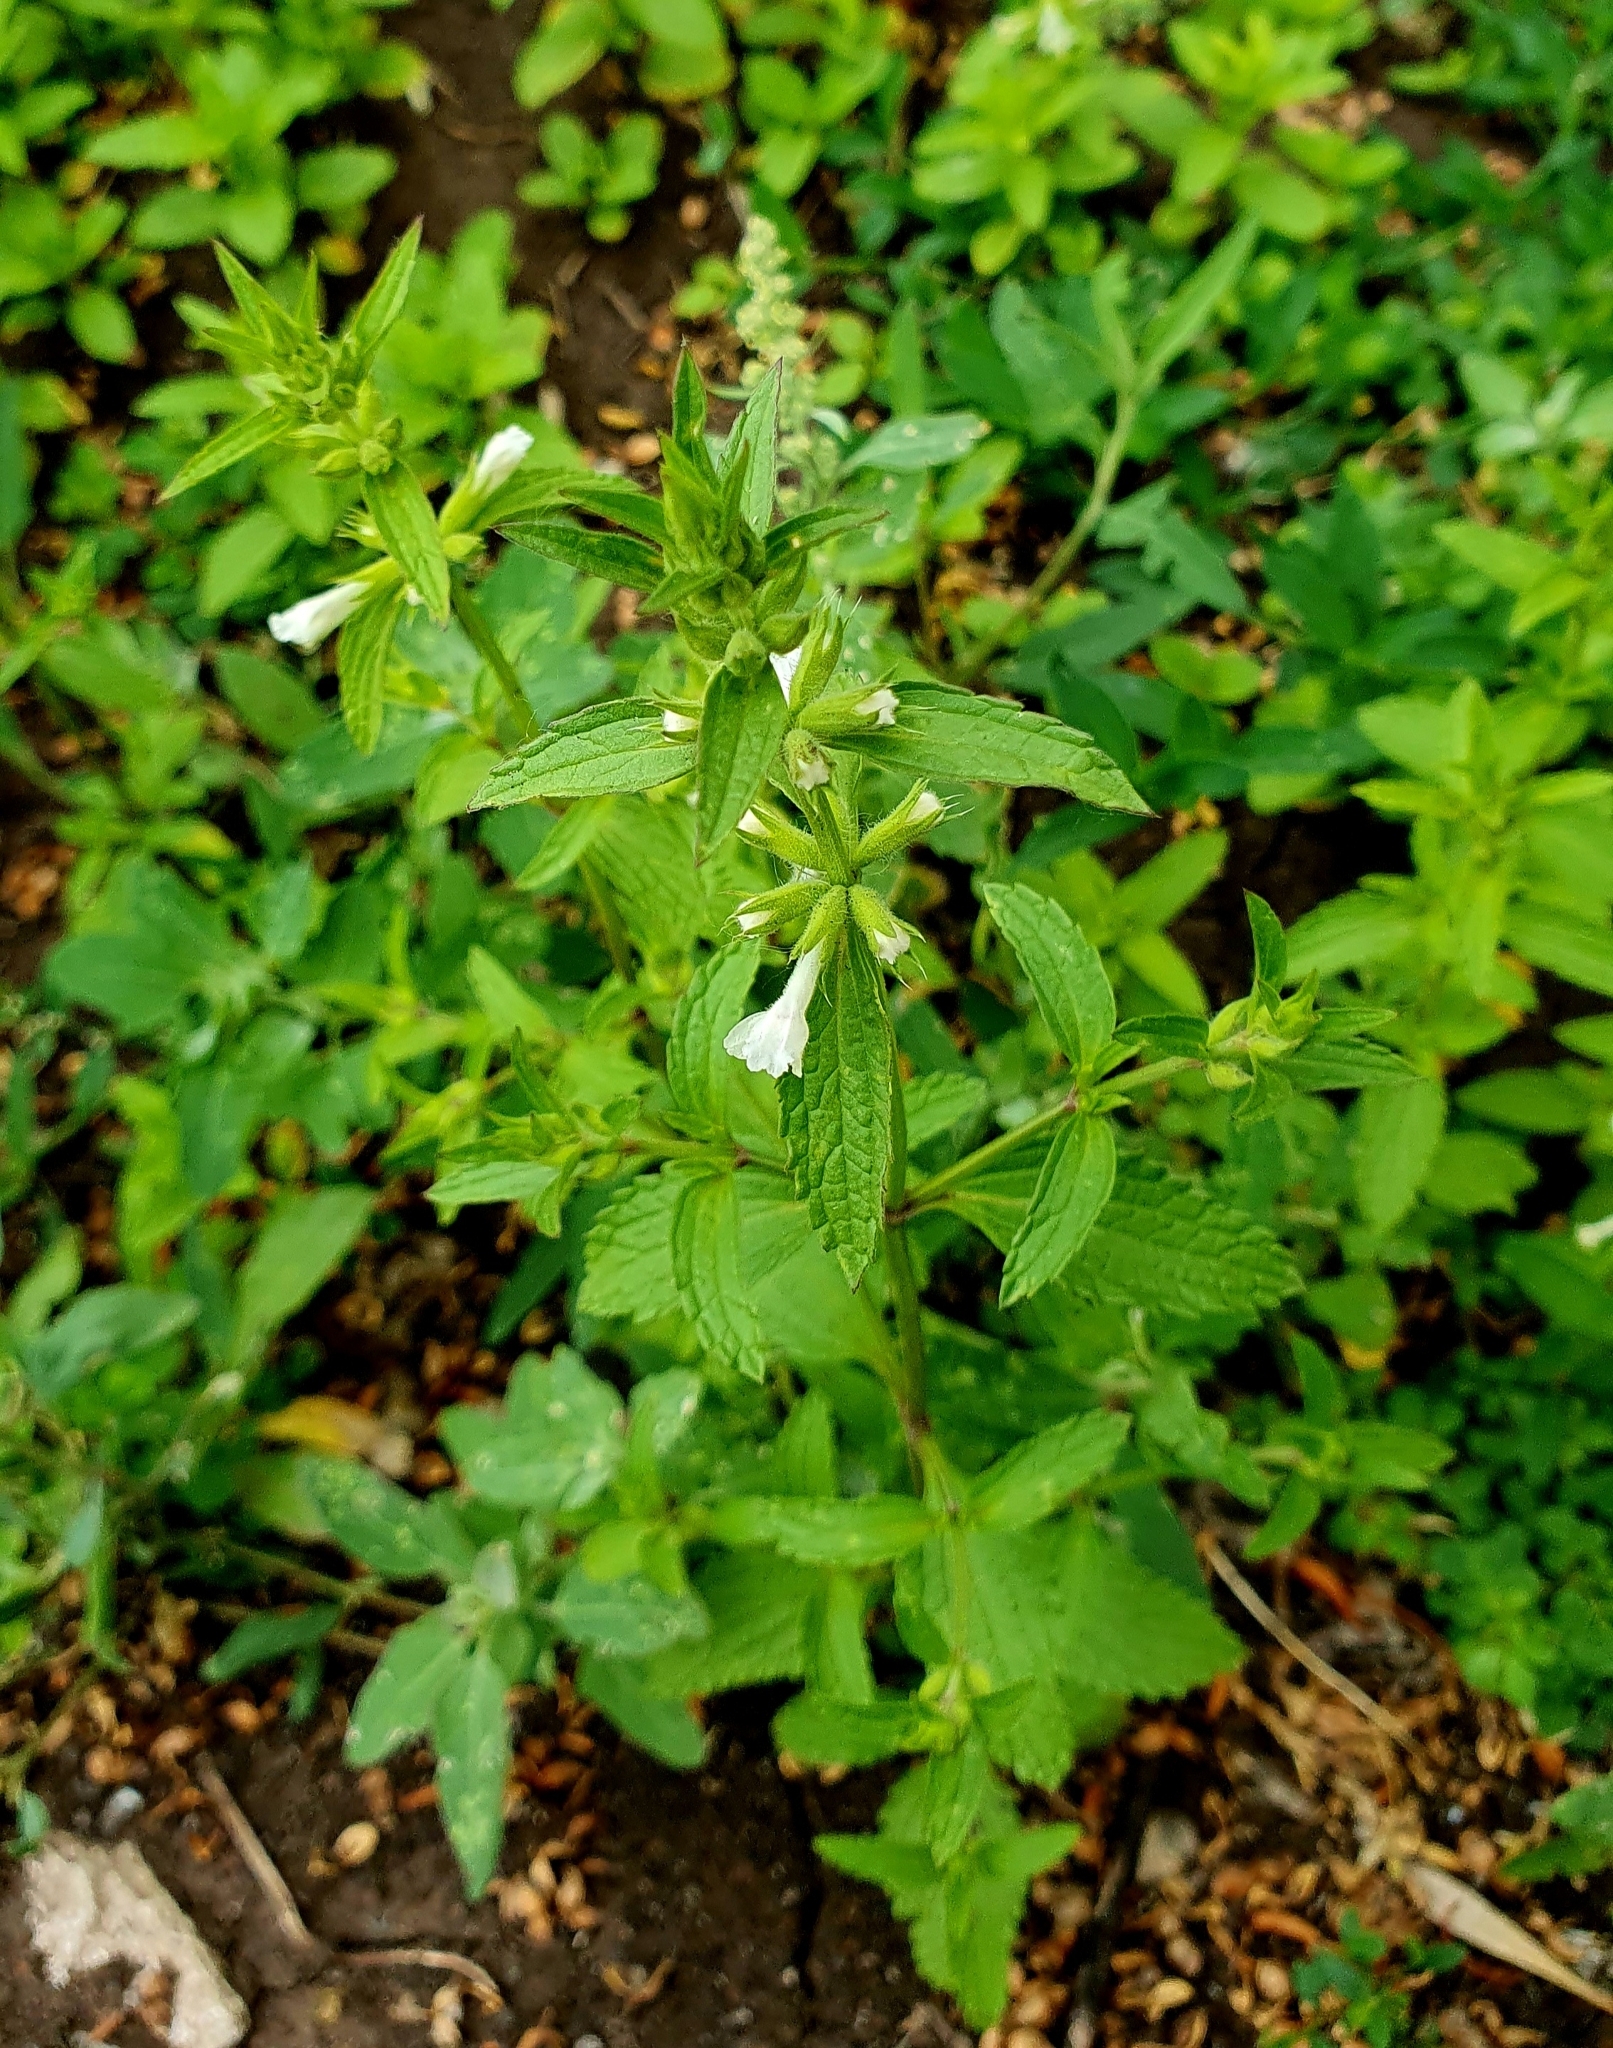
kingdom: Plantae
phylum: Tracheophyta
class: Magnoliopsida
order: Lamiales
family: Lamiaceae
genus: Stachys
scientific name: Stachys annua
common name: Annual yellow-woundwort
